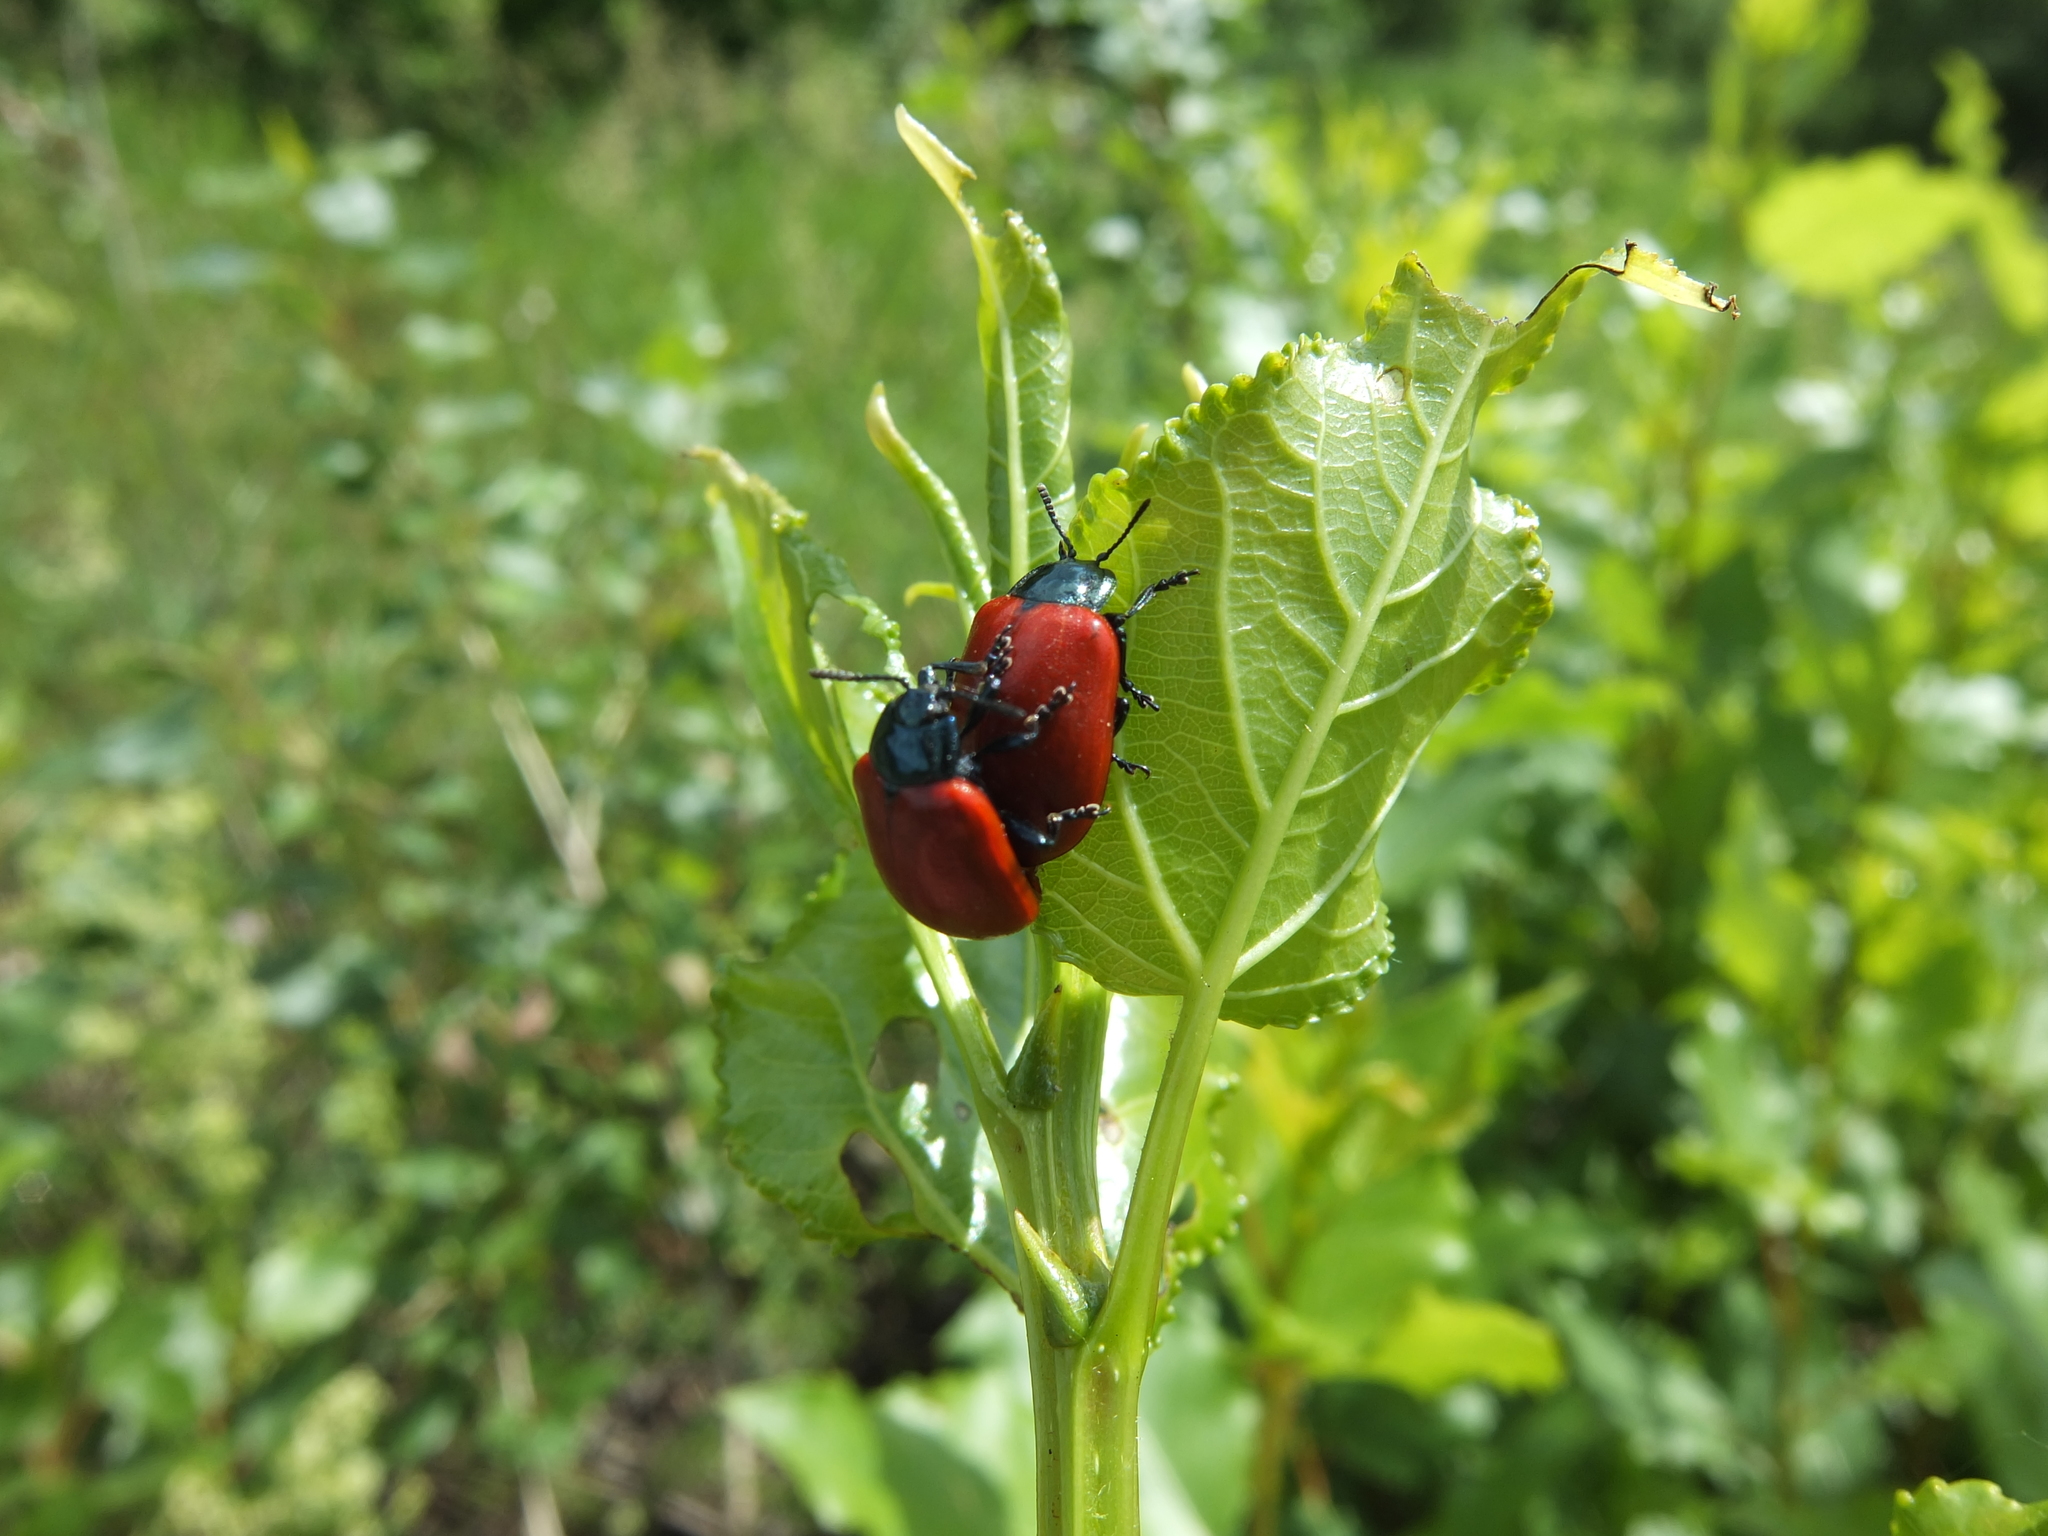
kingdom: Animalia
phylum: Arthropoda
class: Insecta
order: Coleoptera
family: Chrysomelidae
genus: Chrysomela
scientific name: Chrysomela populi
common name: Red poplar leaf beetle
